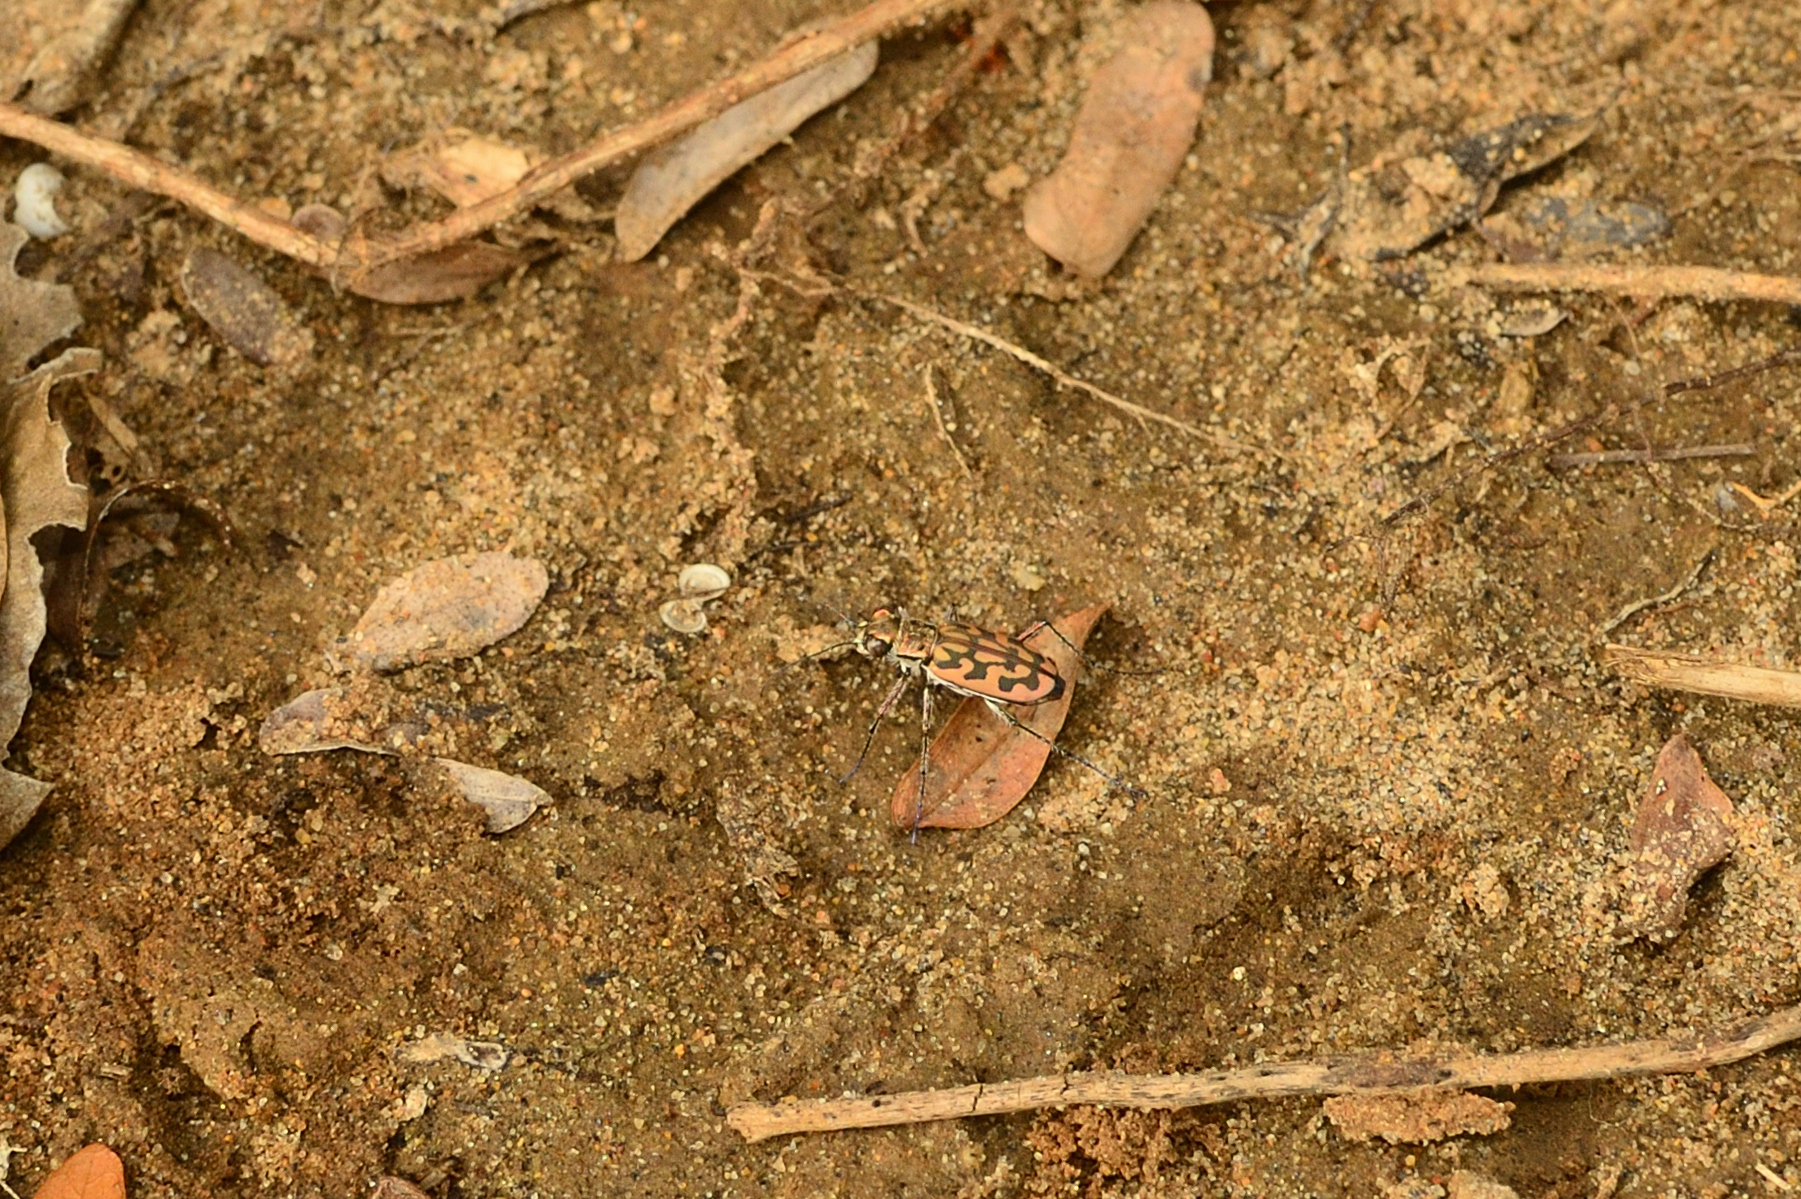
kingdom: Animalia
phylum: Arthropoda
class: Insecta
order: Coleoptera
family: Carabidae
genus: Lophyra
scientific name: Lophyra catena
